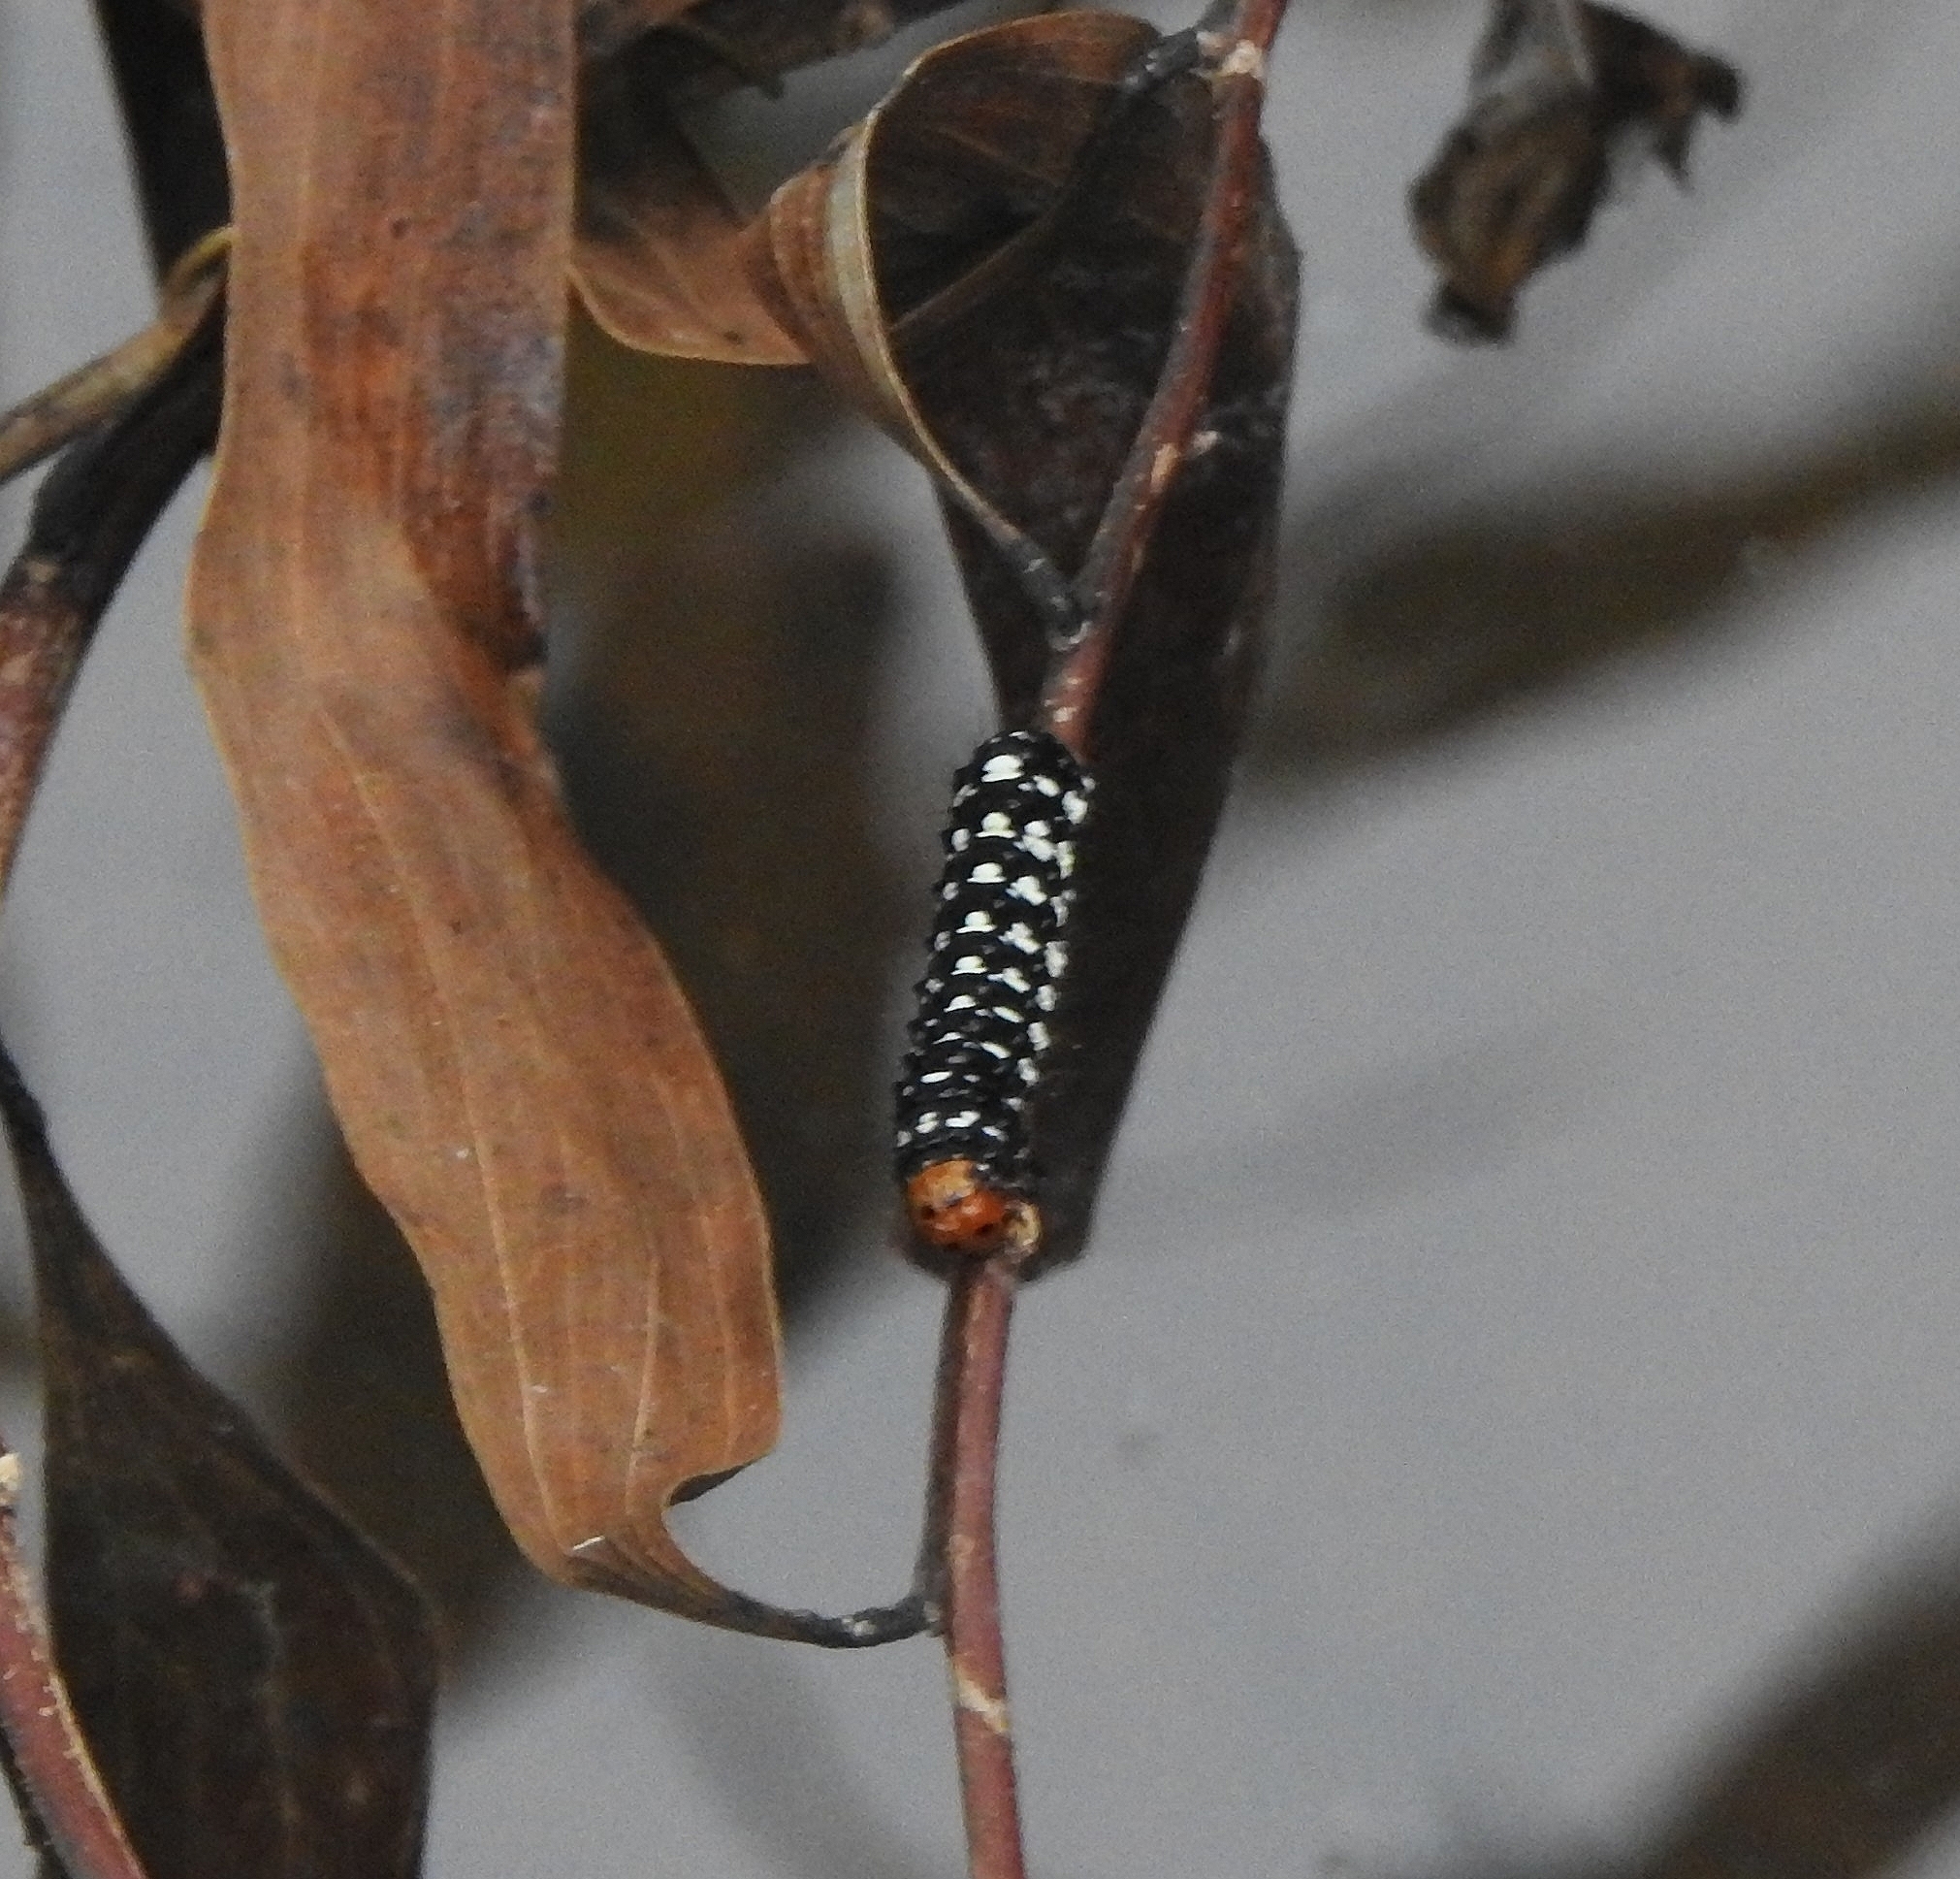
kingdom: Animalia
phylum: Arthropoda
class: Insecta
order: Lepidoptera
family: Noctuidae
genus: Brithys
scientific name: Brithys crini
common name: Kew arches
